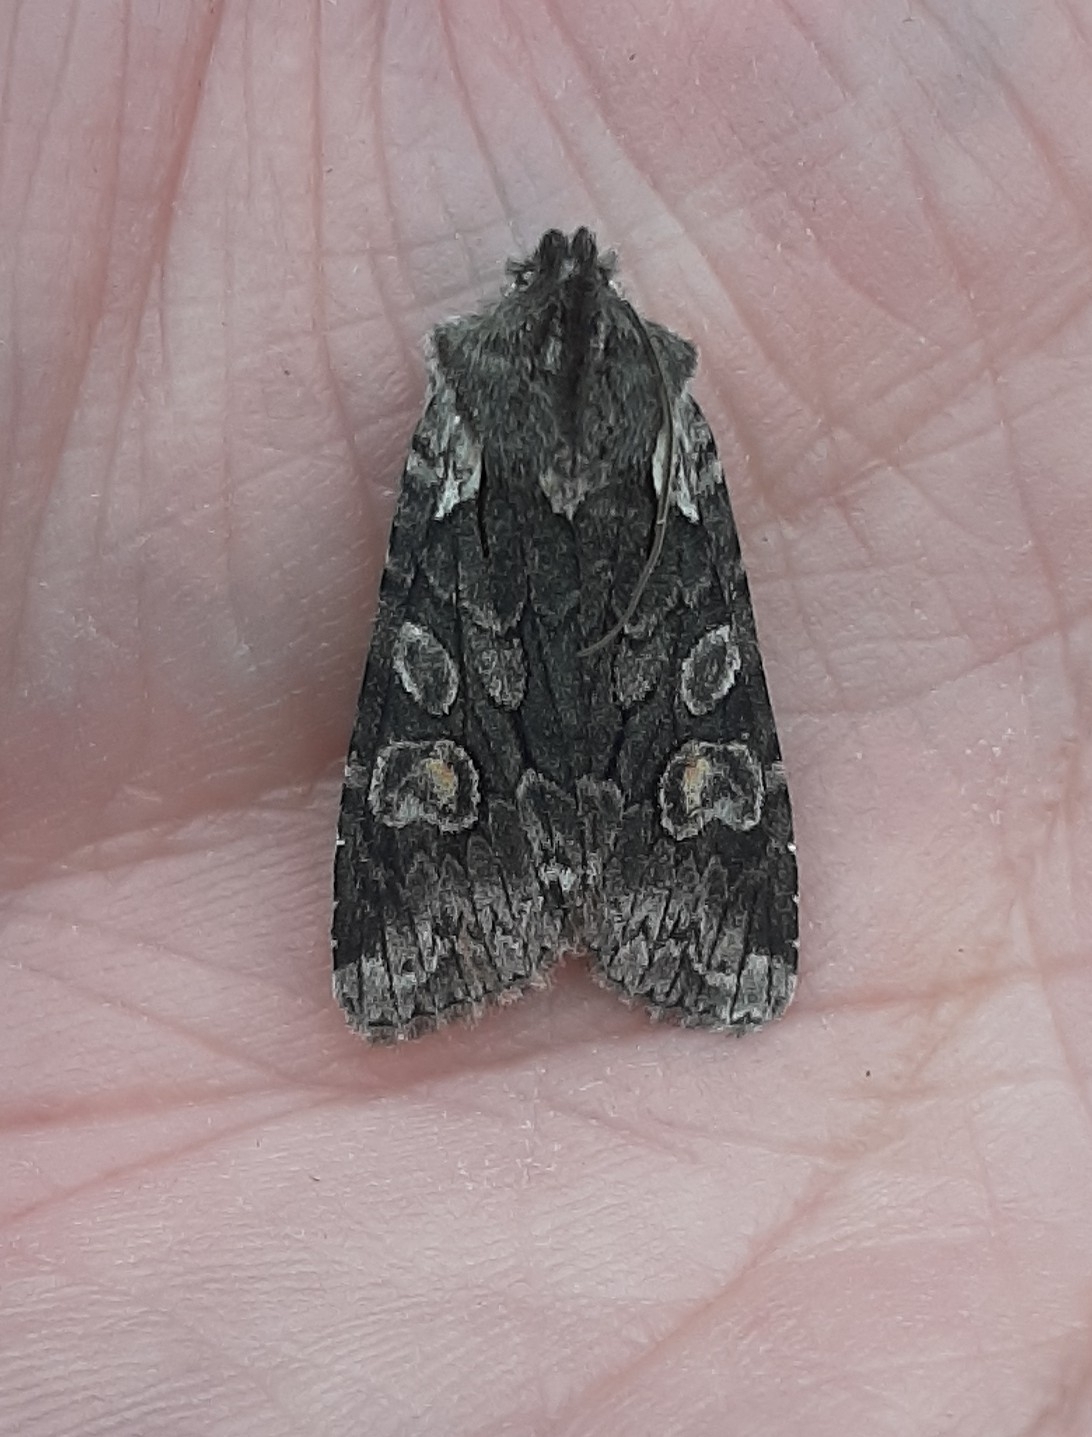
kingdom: Animalia
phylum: Arthropoda
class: Insecta
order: Lepidoptera
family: Noctuidae
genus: Lithophane
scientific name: Lithophane consocia
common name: Softly's shoulder-knot
